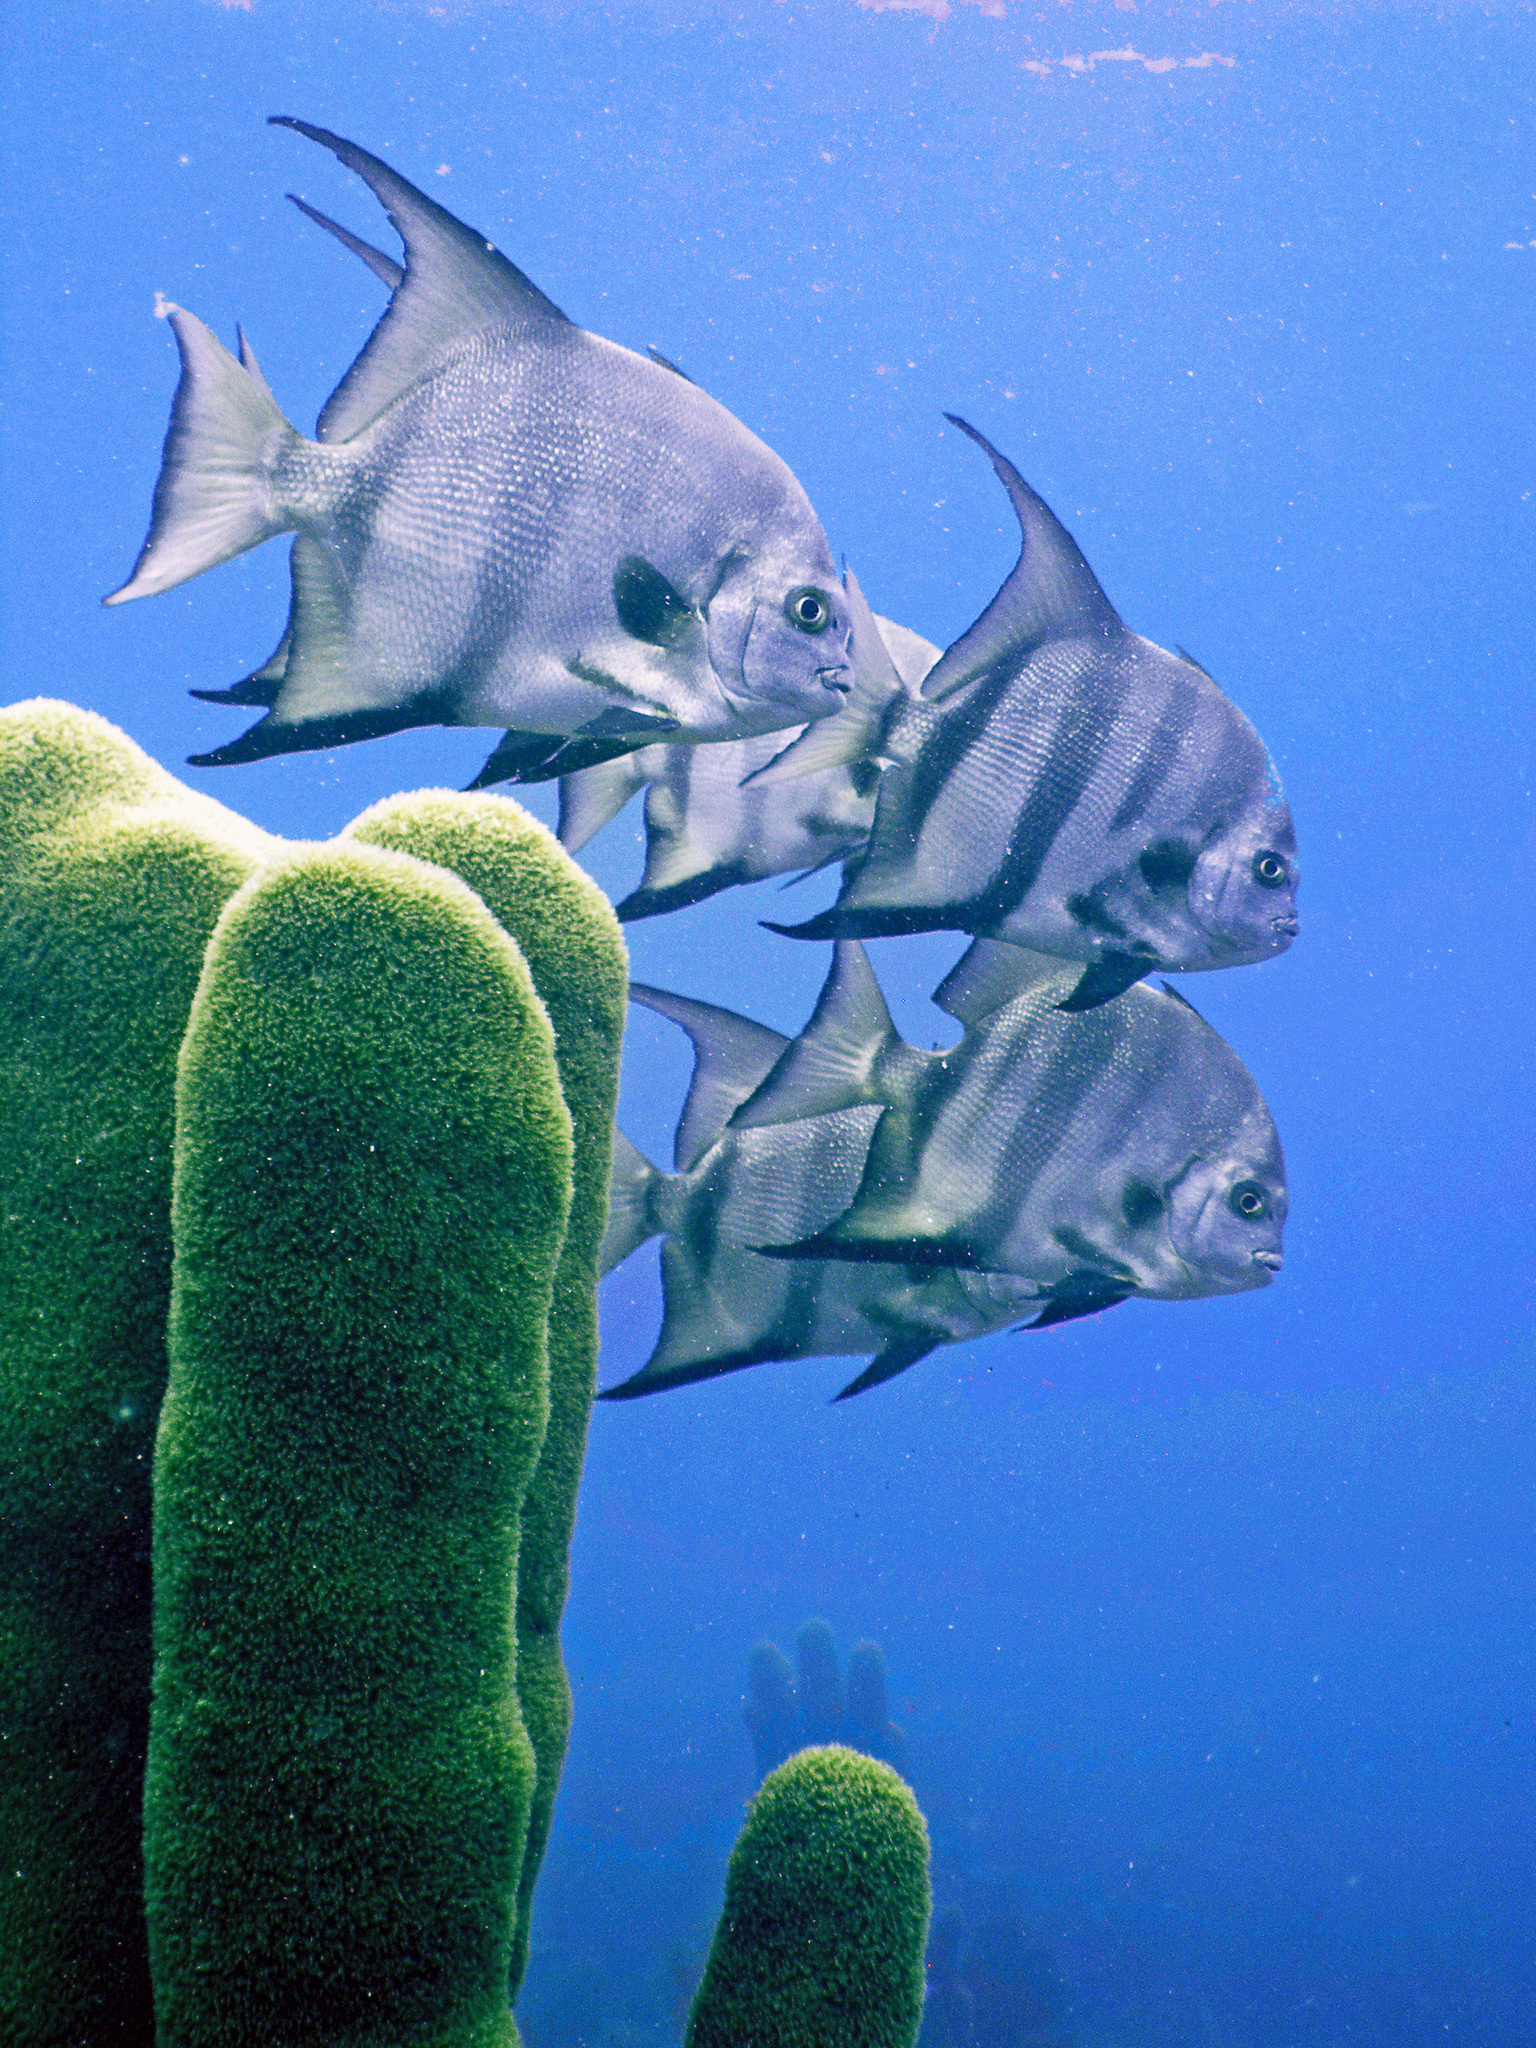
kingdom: Animalia
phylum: Chordata
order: Perciformes
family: Ephippidae
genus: Chaetodipterus
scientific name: Chaetodipterus faber
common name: Ocean cobbler
